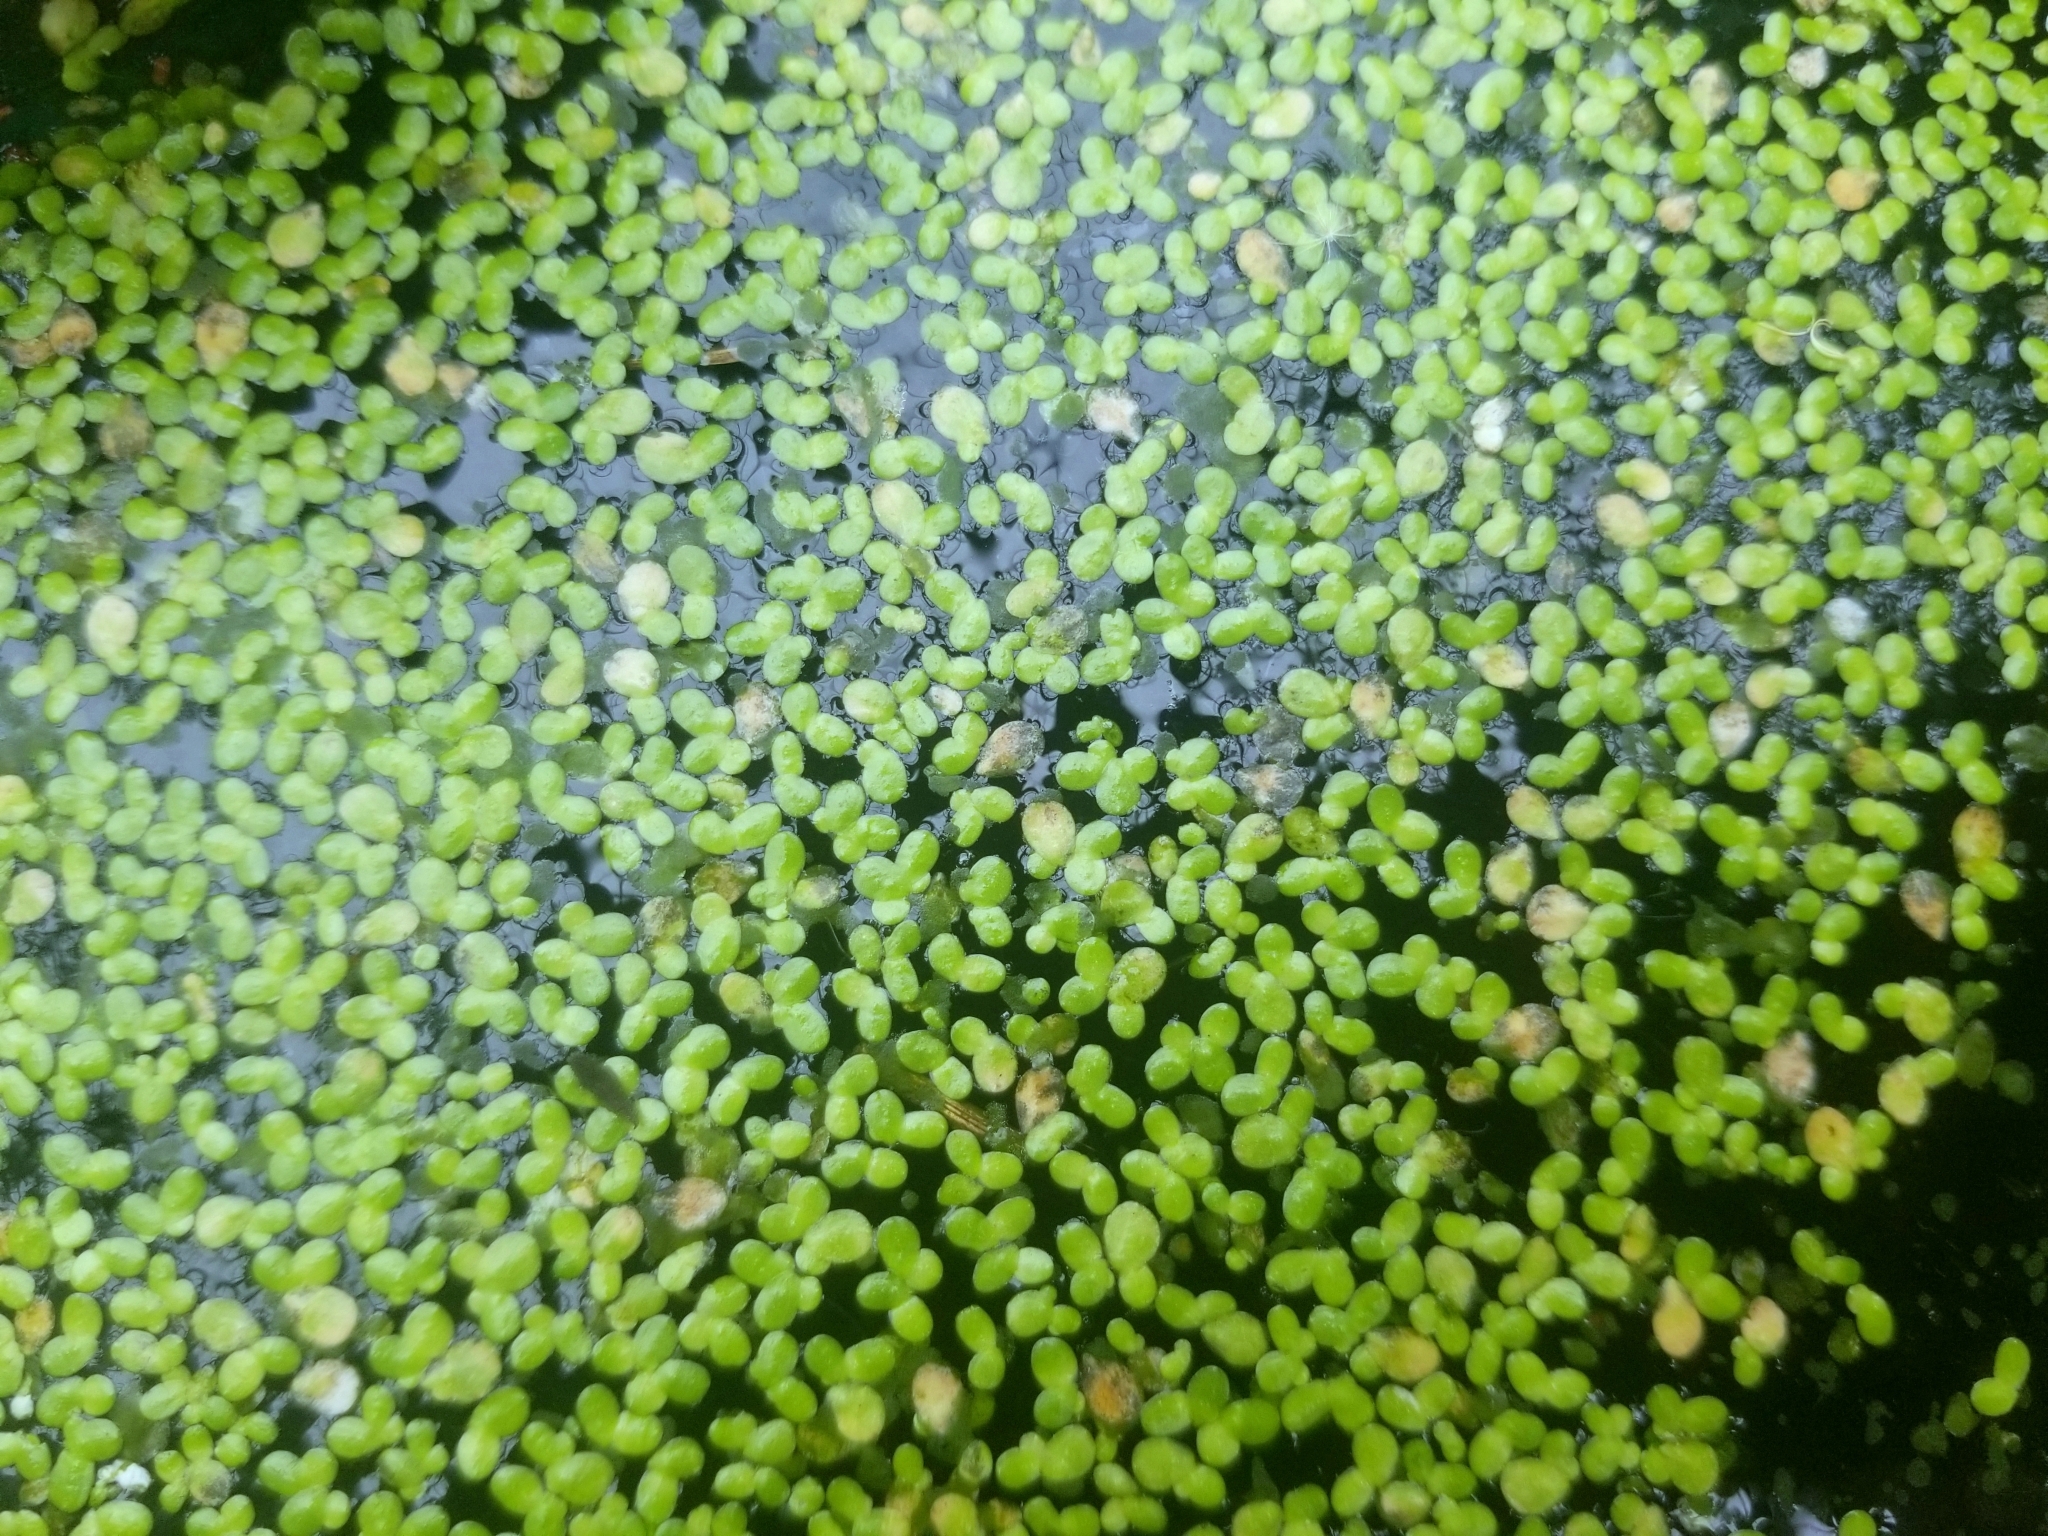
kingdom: Plantae
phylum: Tracheophyta
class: Liliopsida
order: Alismatales
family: Araceae
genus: Lemna
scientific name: Lemna minor
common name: Common duckweed
